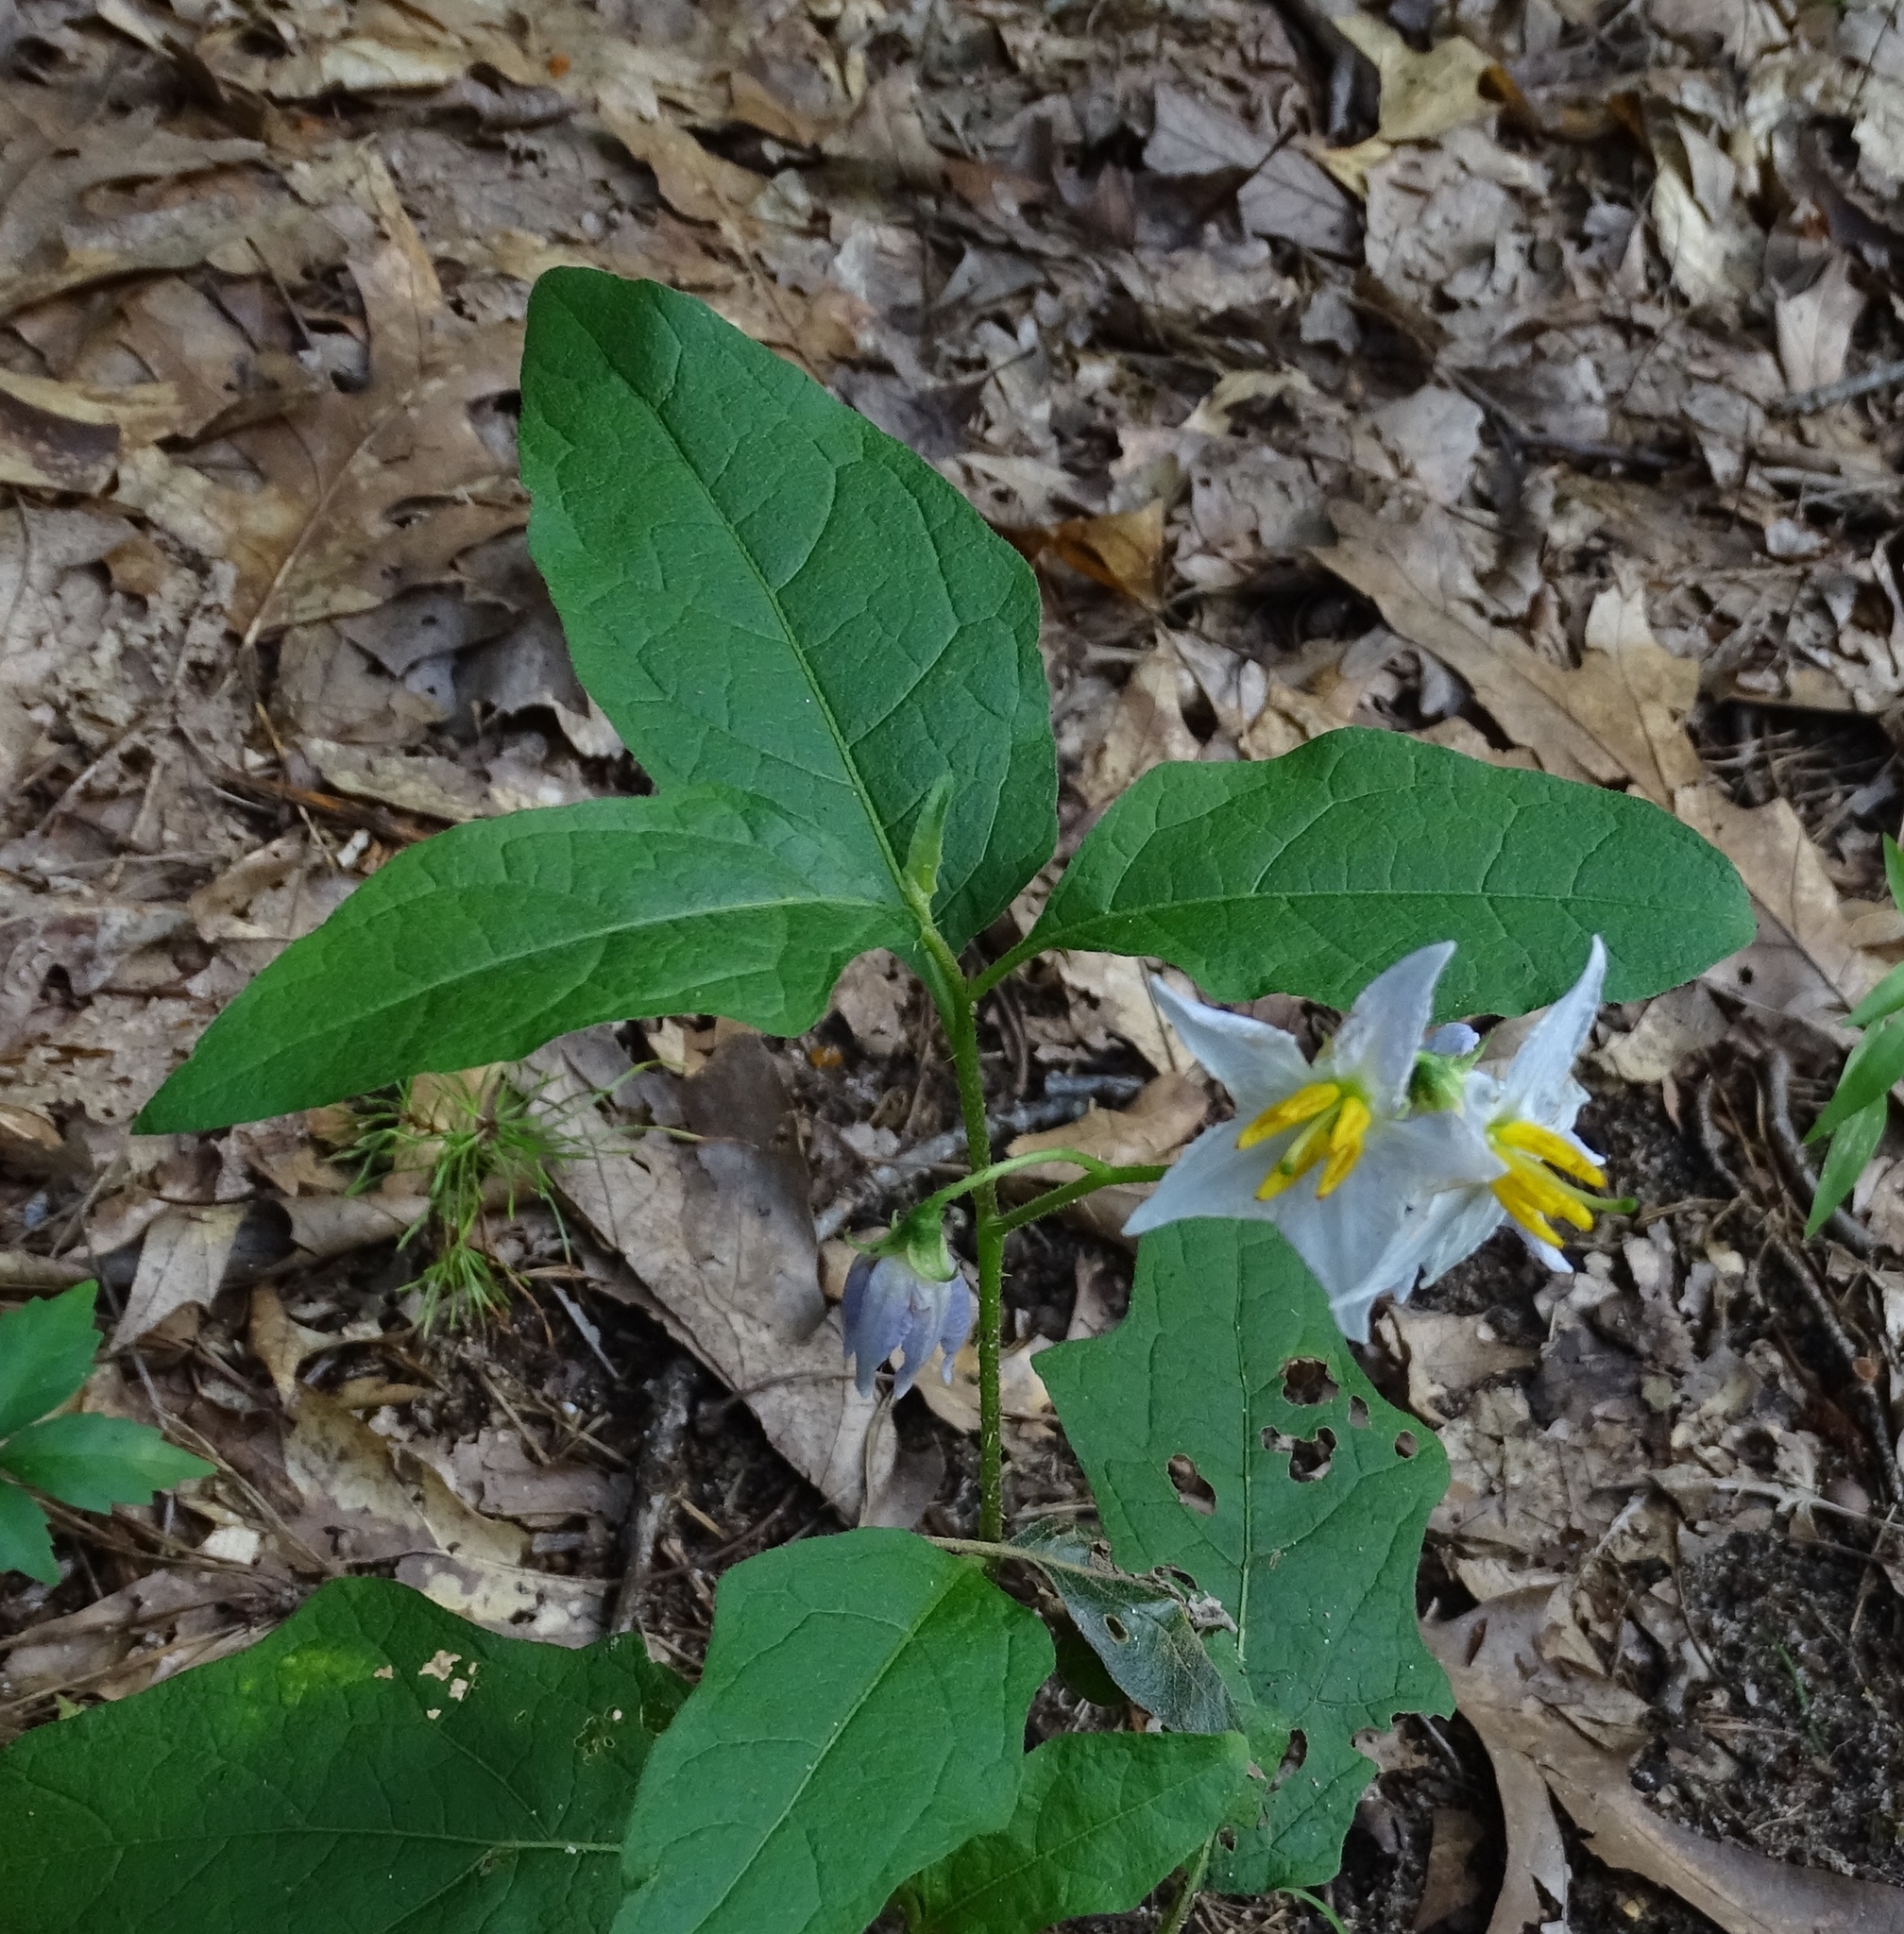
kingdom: Plantae
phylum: Tracheophyta
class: Magnoliopsida
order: Solanales
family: Solanaceae
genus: Solanum
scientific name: Solanum carolinense
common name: Horse-nettle
